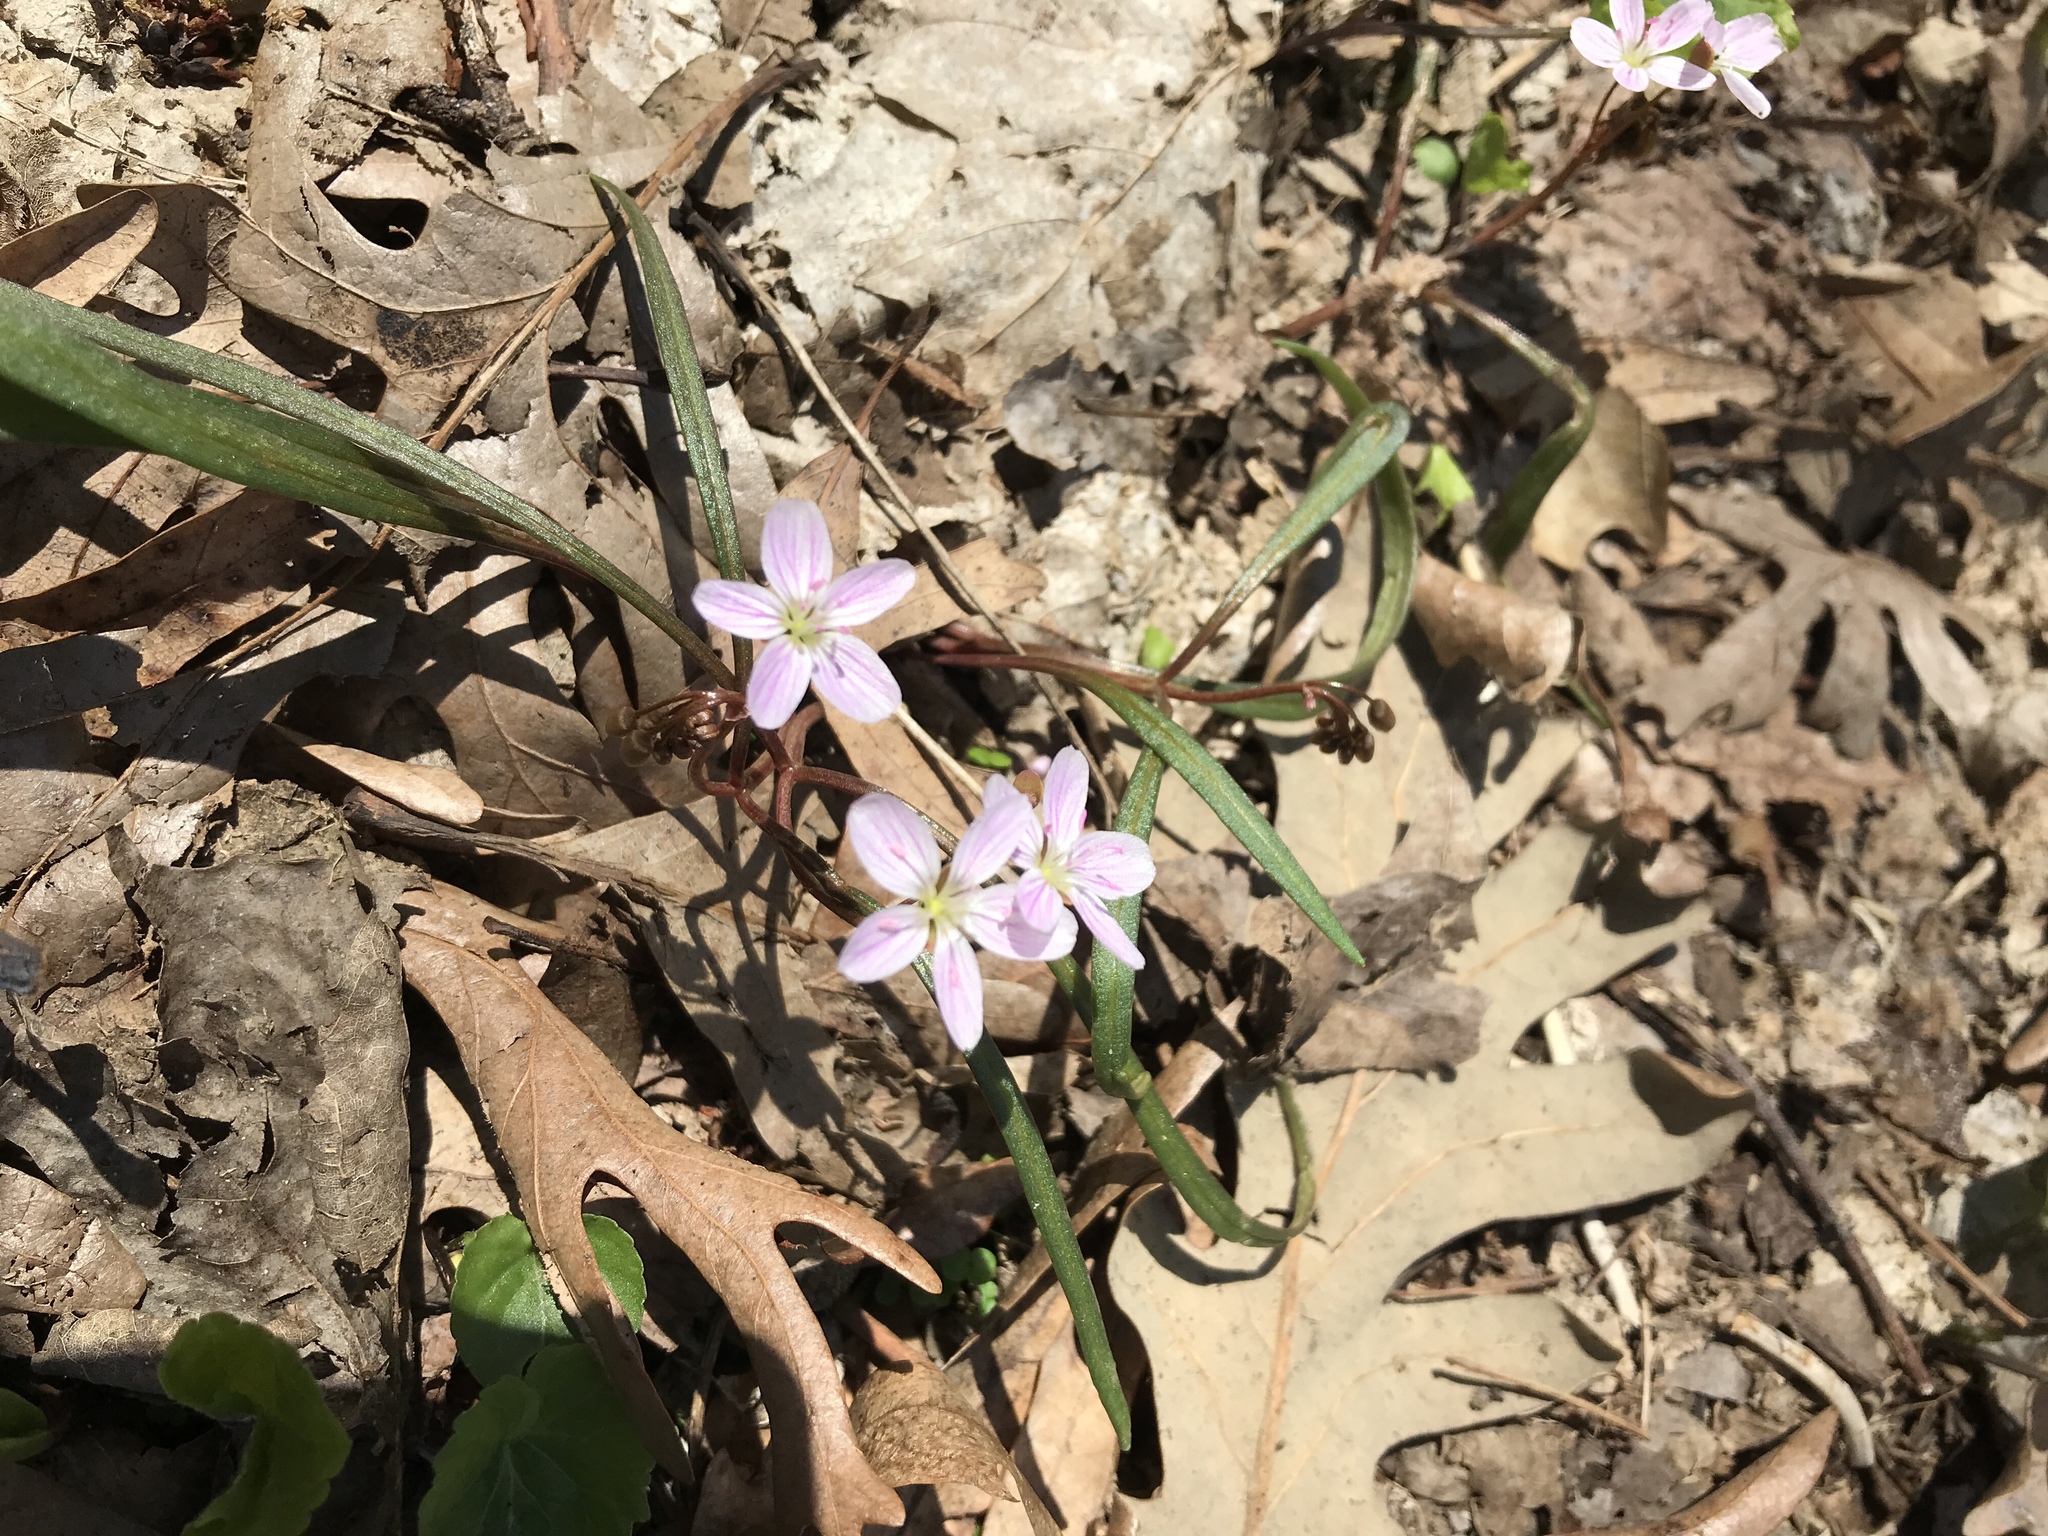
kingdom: Plantae
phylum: Tracheophyta
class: Magnoliopsida
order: Caryophyllales
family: Montiaceae
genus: Claytonia
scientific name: Claytonia virginica
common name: Virginia springbeauty
